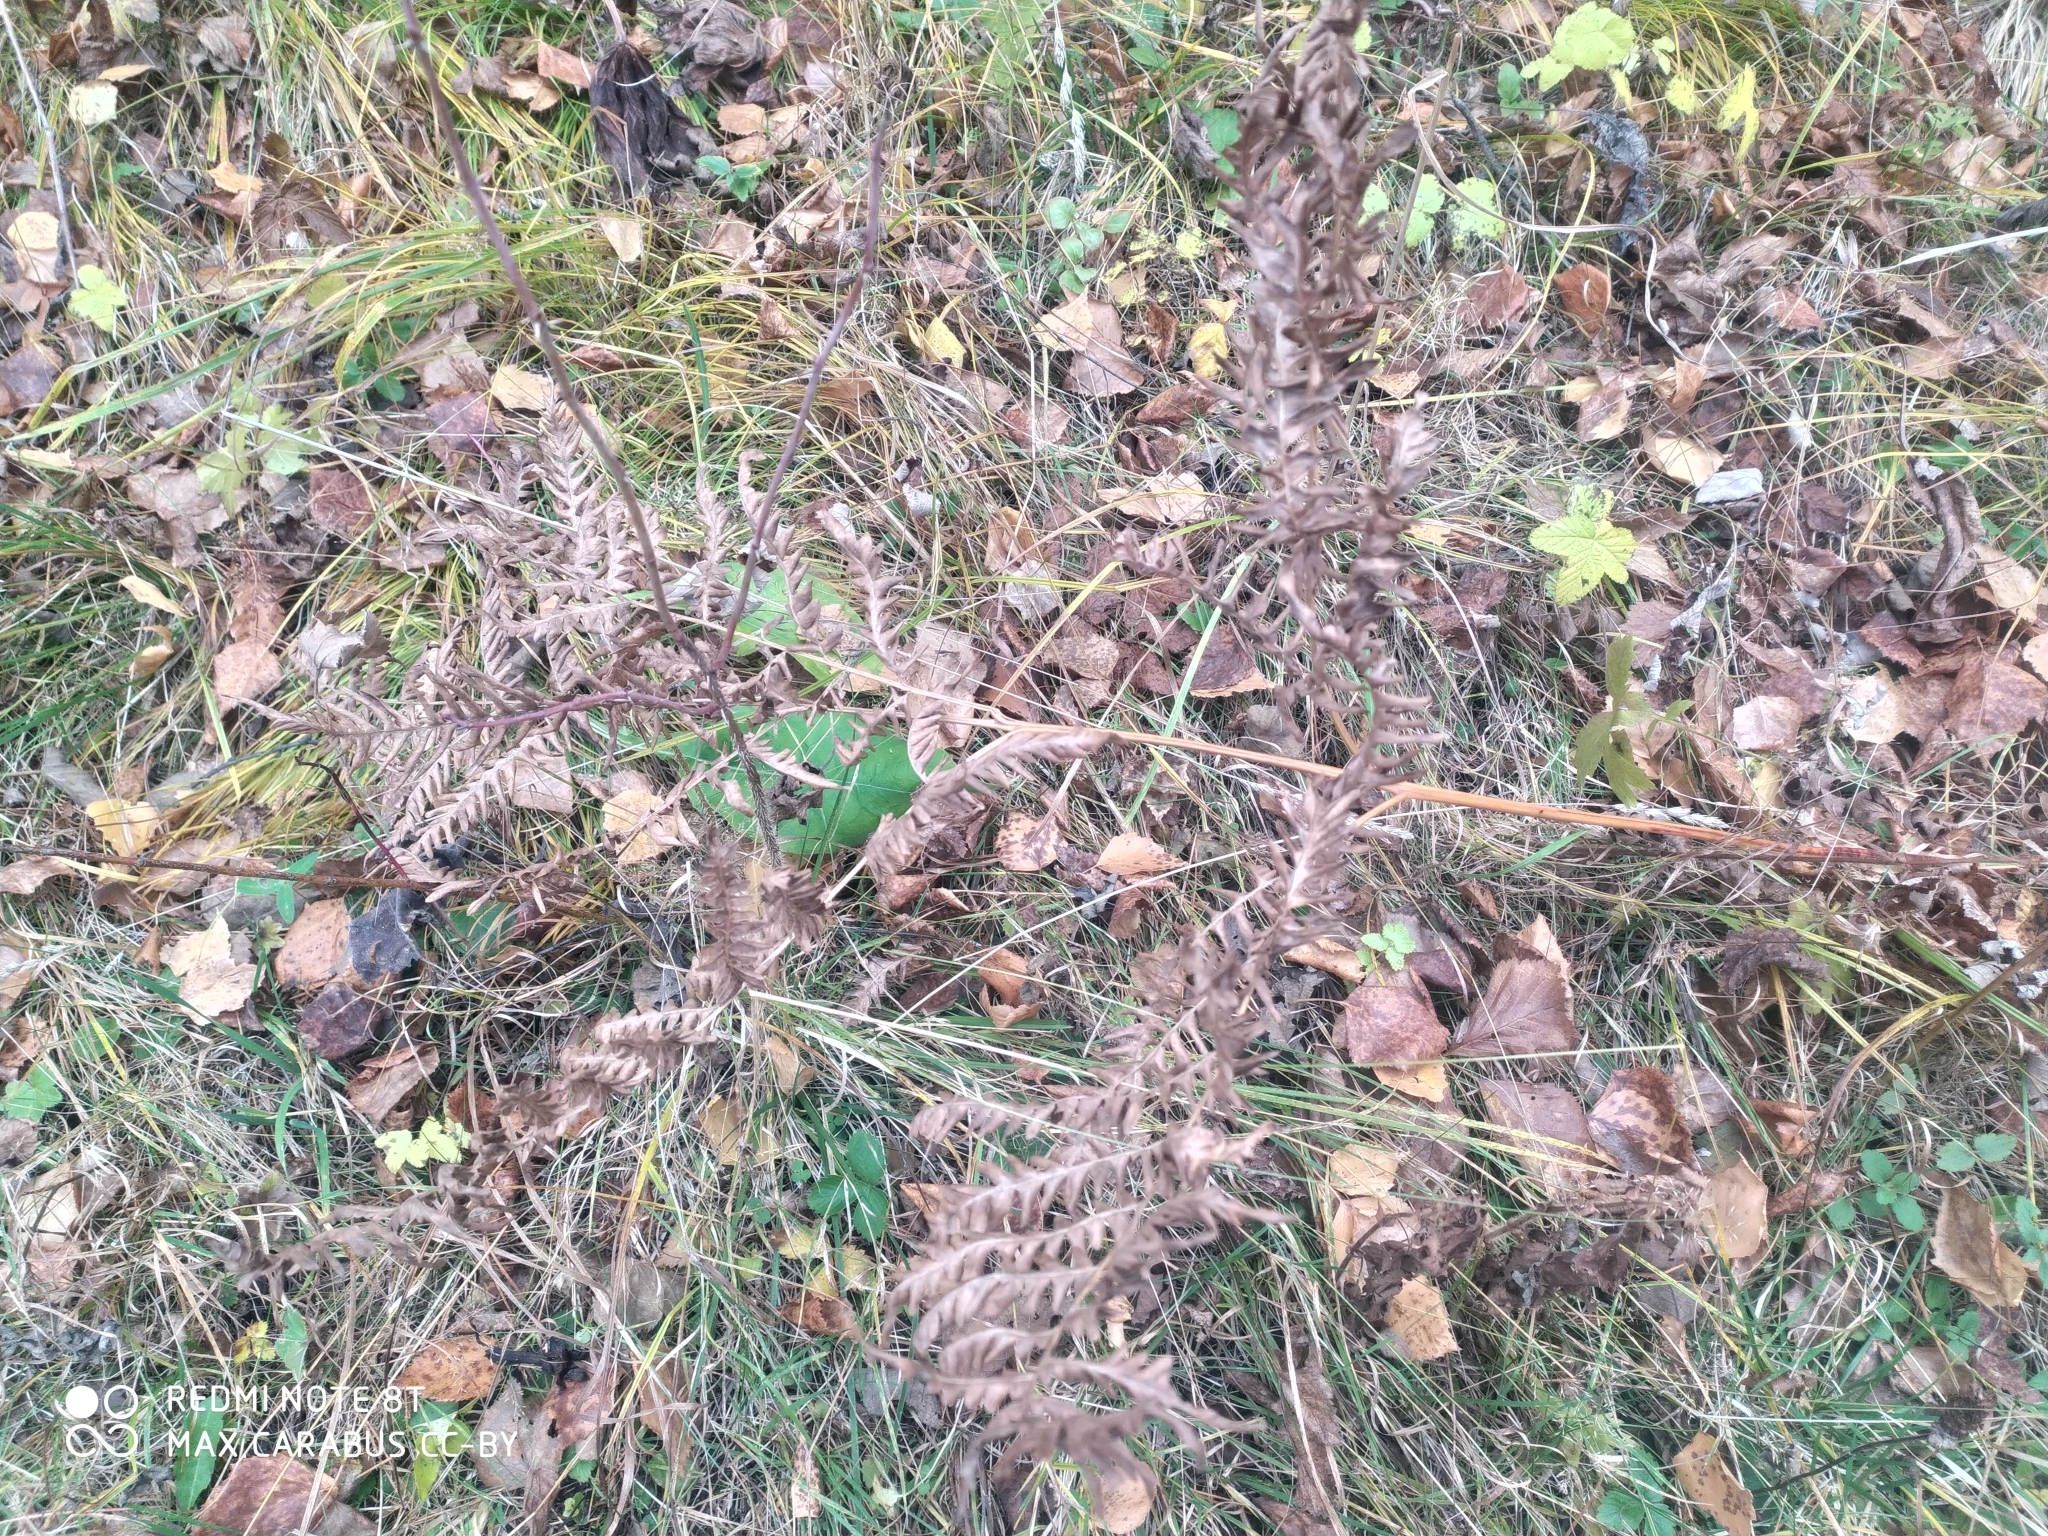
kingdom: Plantae
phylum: Tracheophyta
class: Polypodiopsida
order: Polypodiales
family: Dennstaedtiaceae
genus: Pteridium
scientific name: Pteridium aquilinum
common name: Bracken
